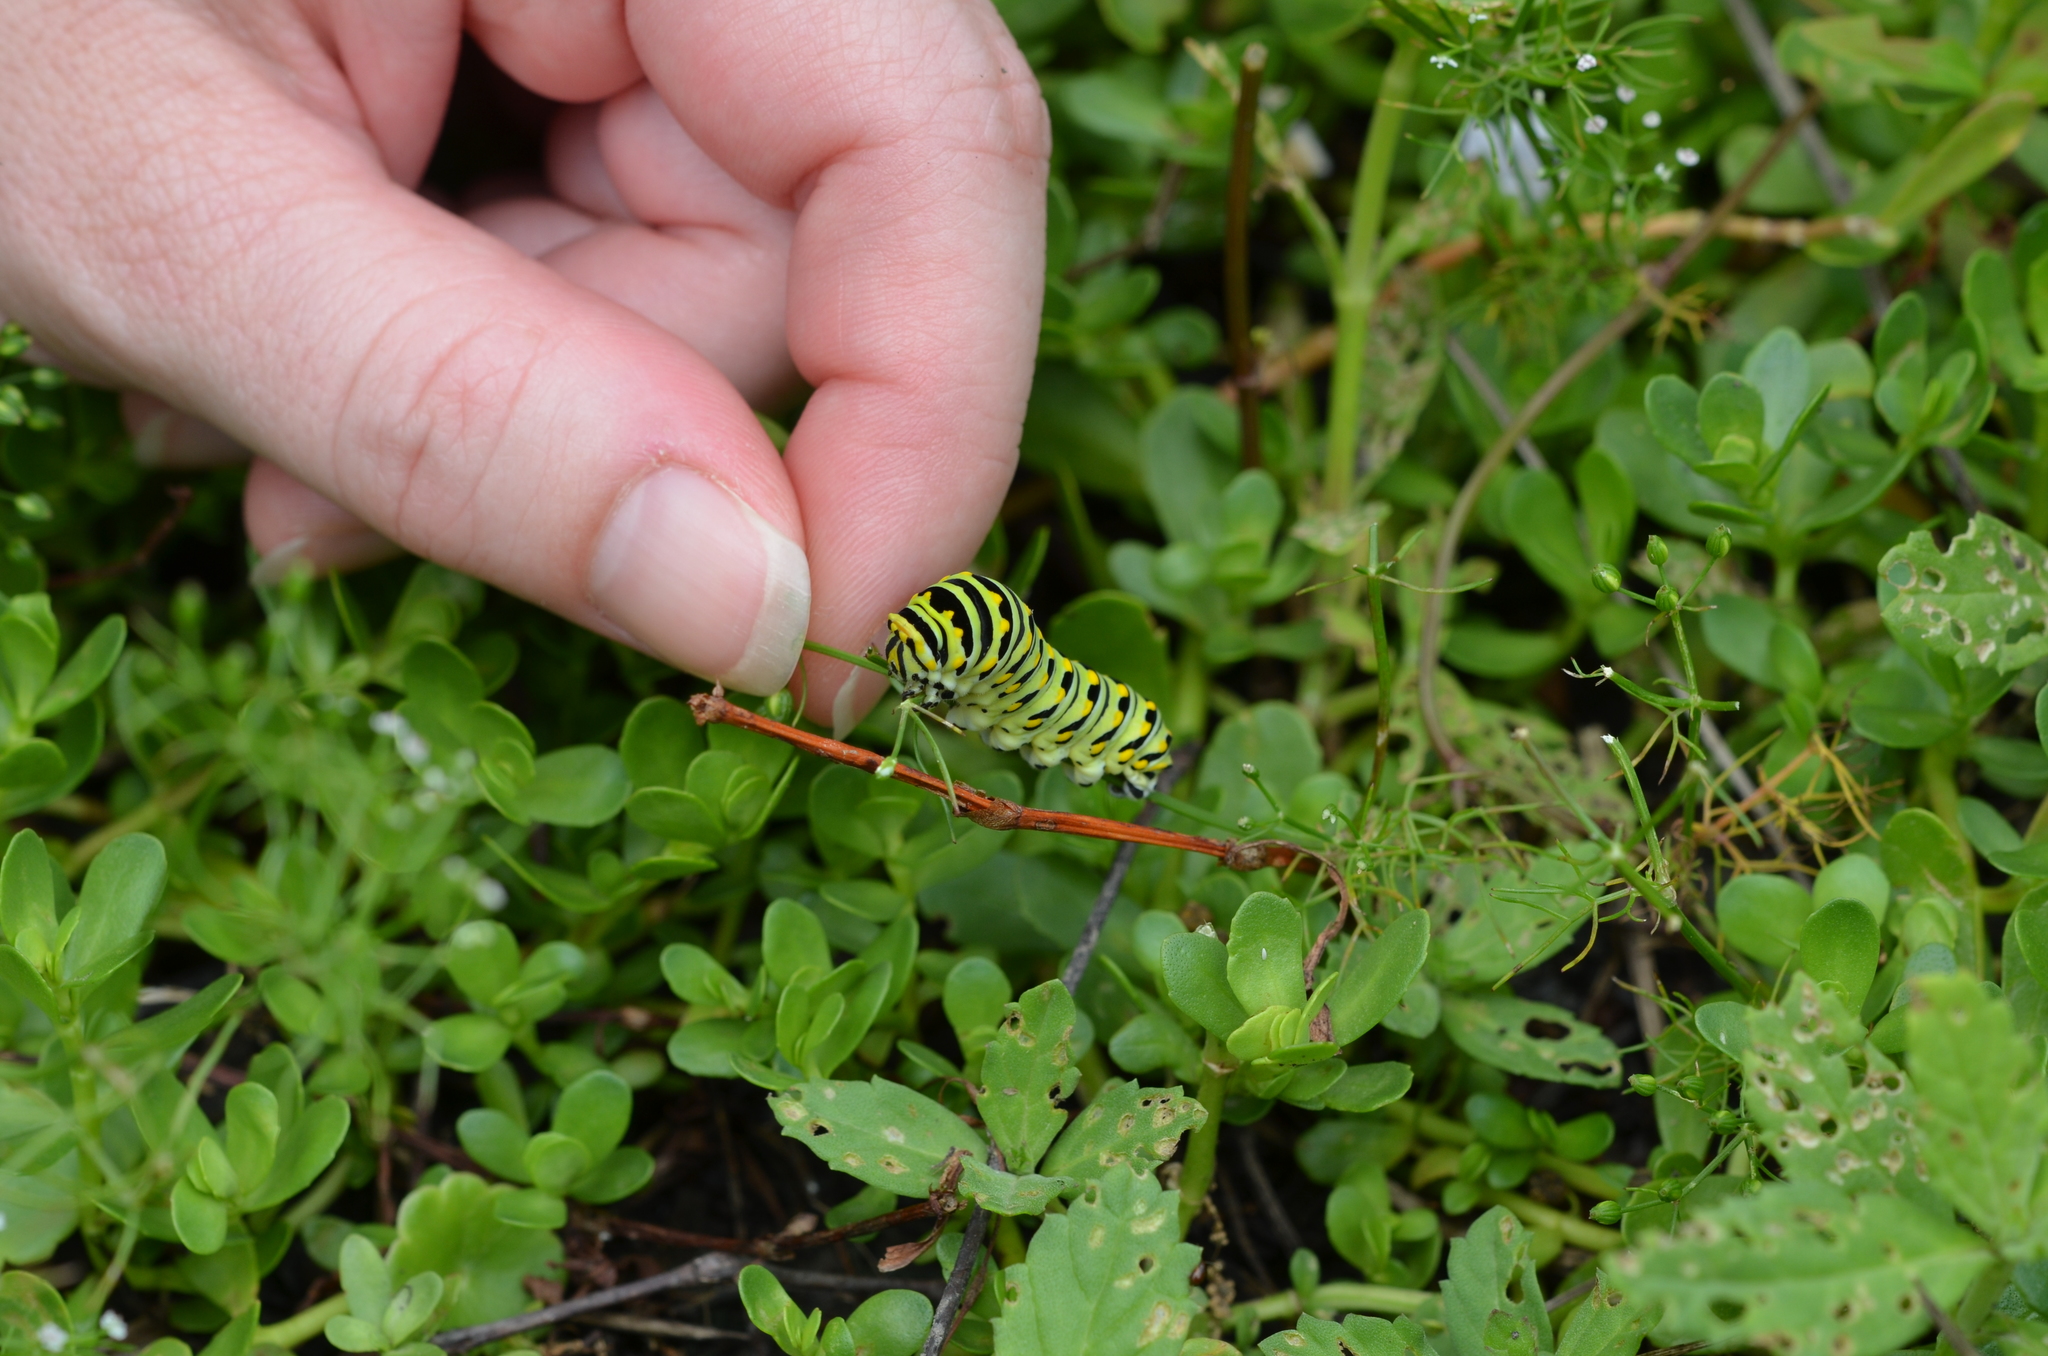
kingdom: Animalia
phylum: Arthropoda
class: Insecta
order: Lepidoptera
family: Papilionidae
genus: Papilio
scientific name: Papilio polyxenes
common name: Black swallowtail
